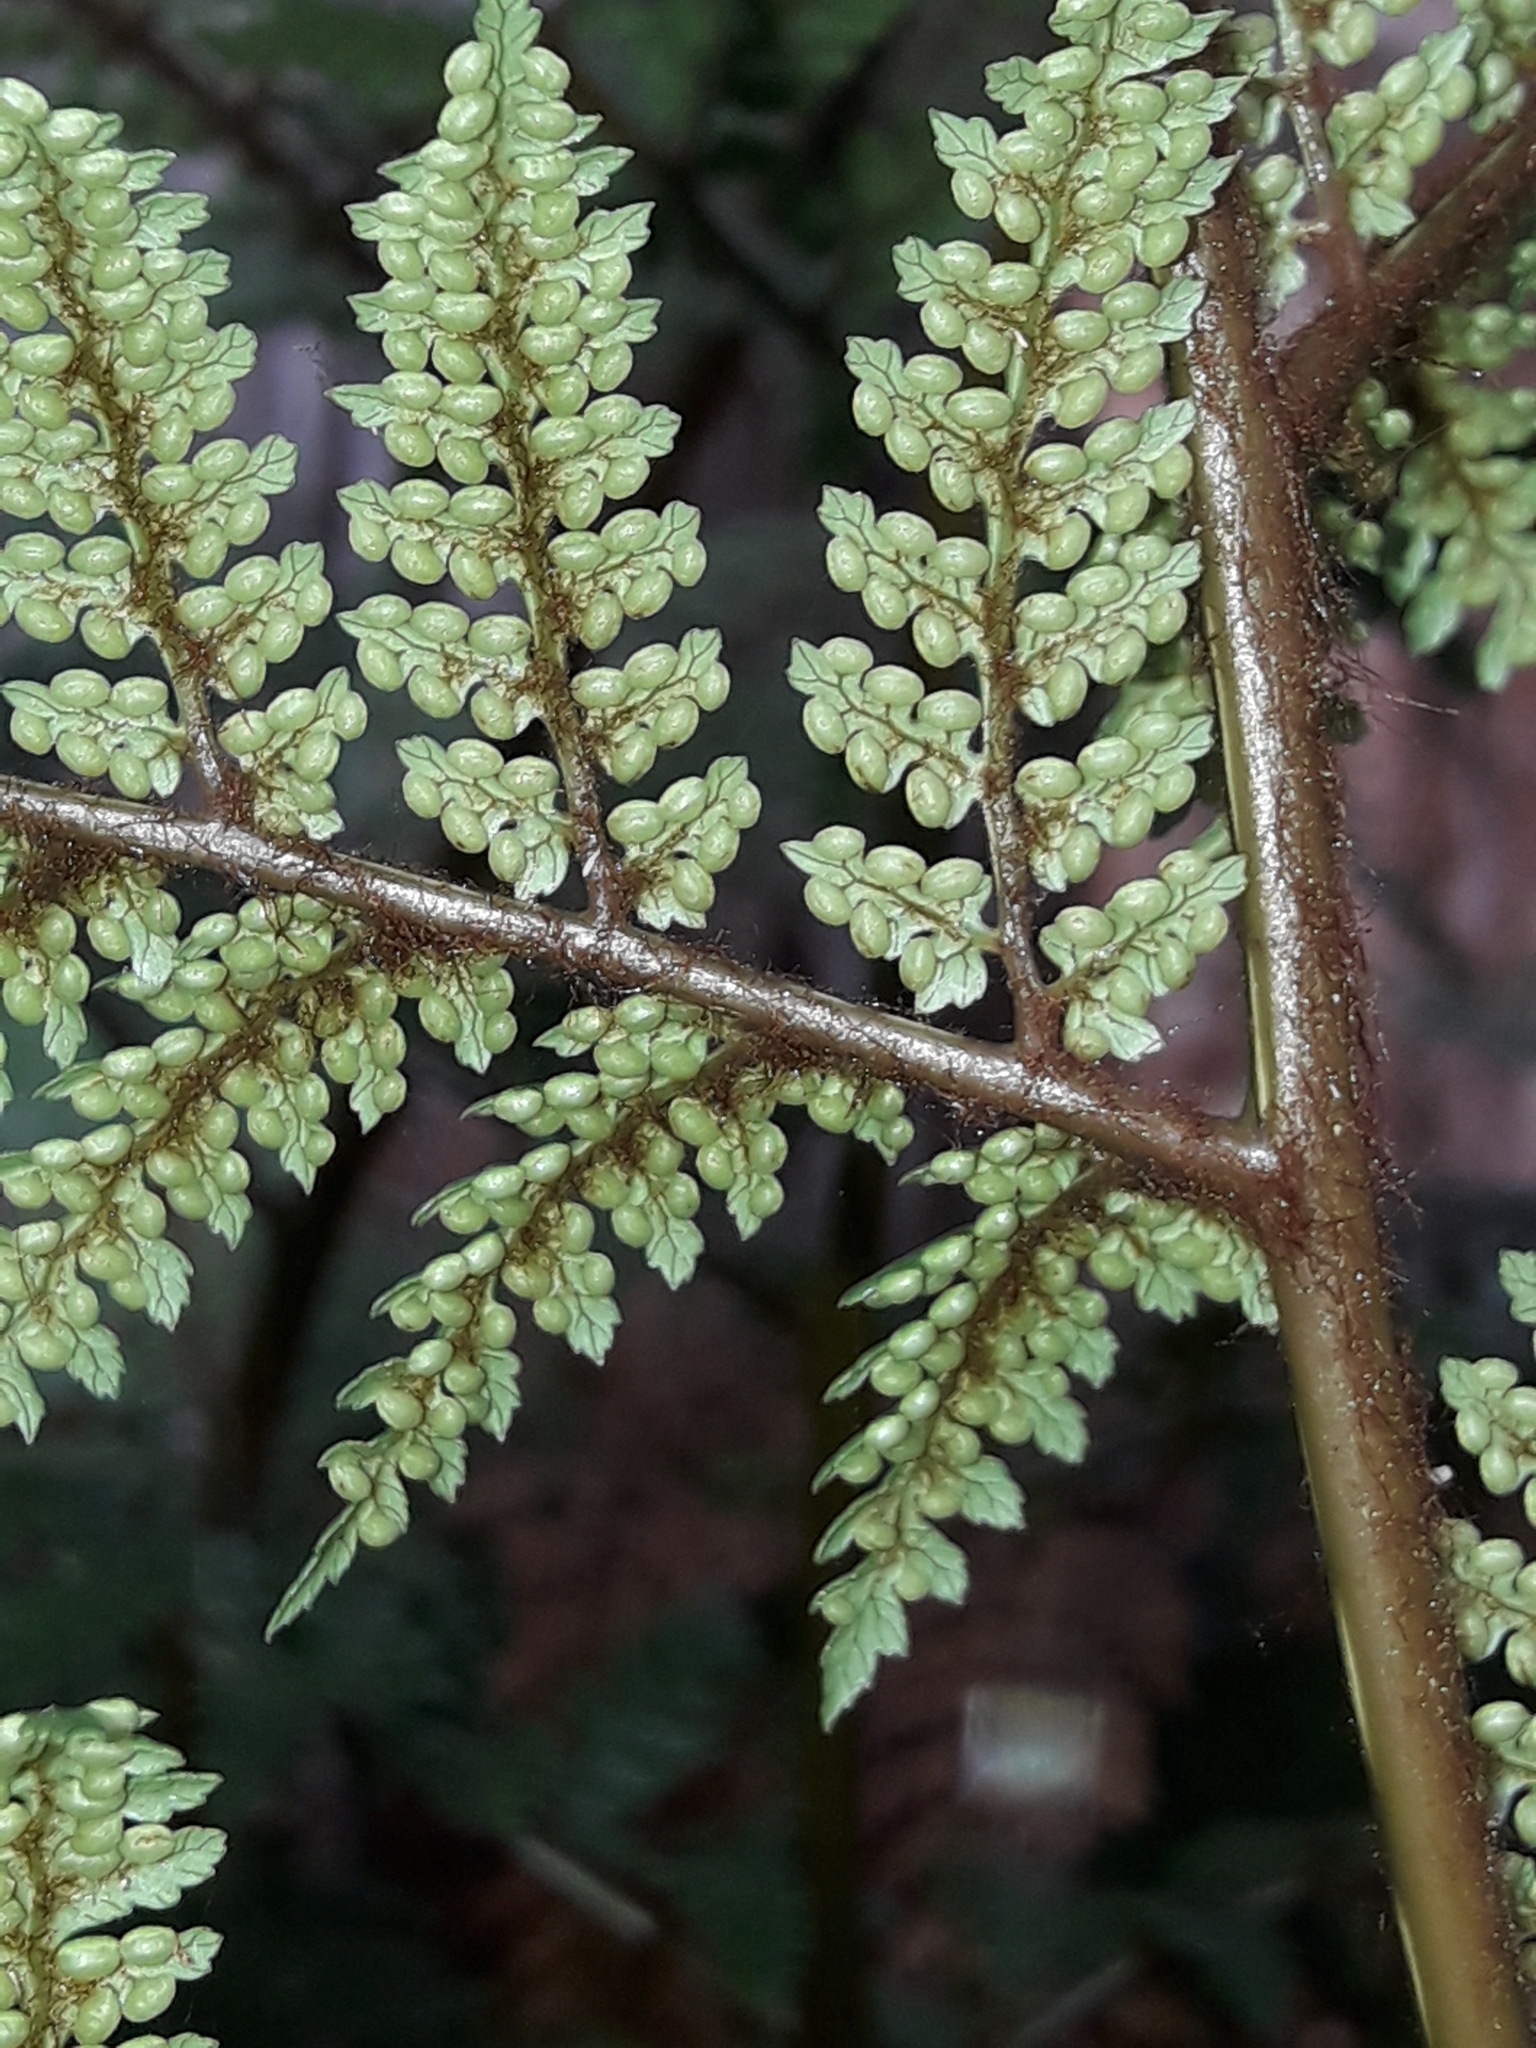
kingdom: Plantae
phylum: Tracheophyta
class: Polypodiopsida
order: Cyatheales
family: Dicksoniaceae
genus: Dicksonia
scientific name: Dicksonia lanata
